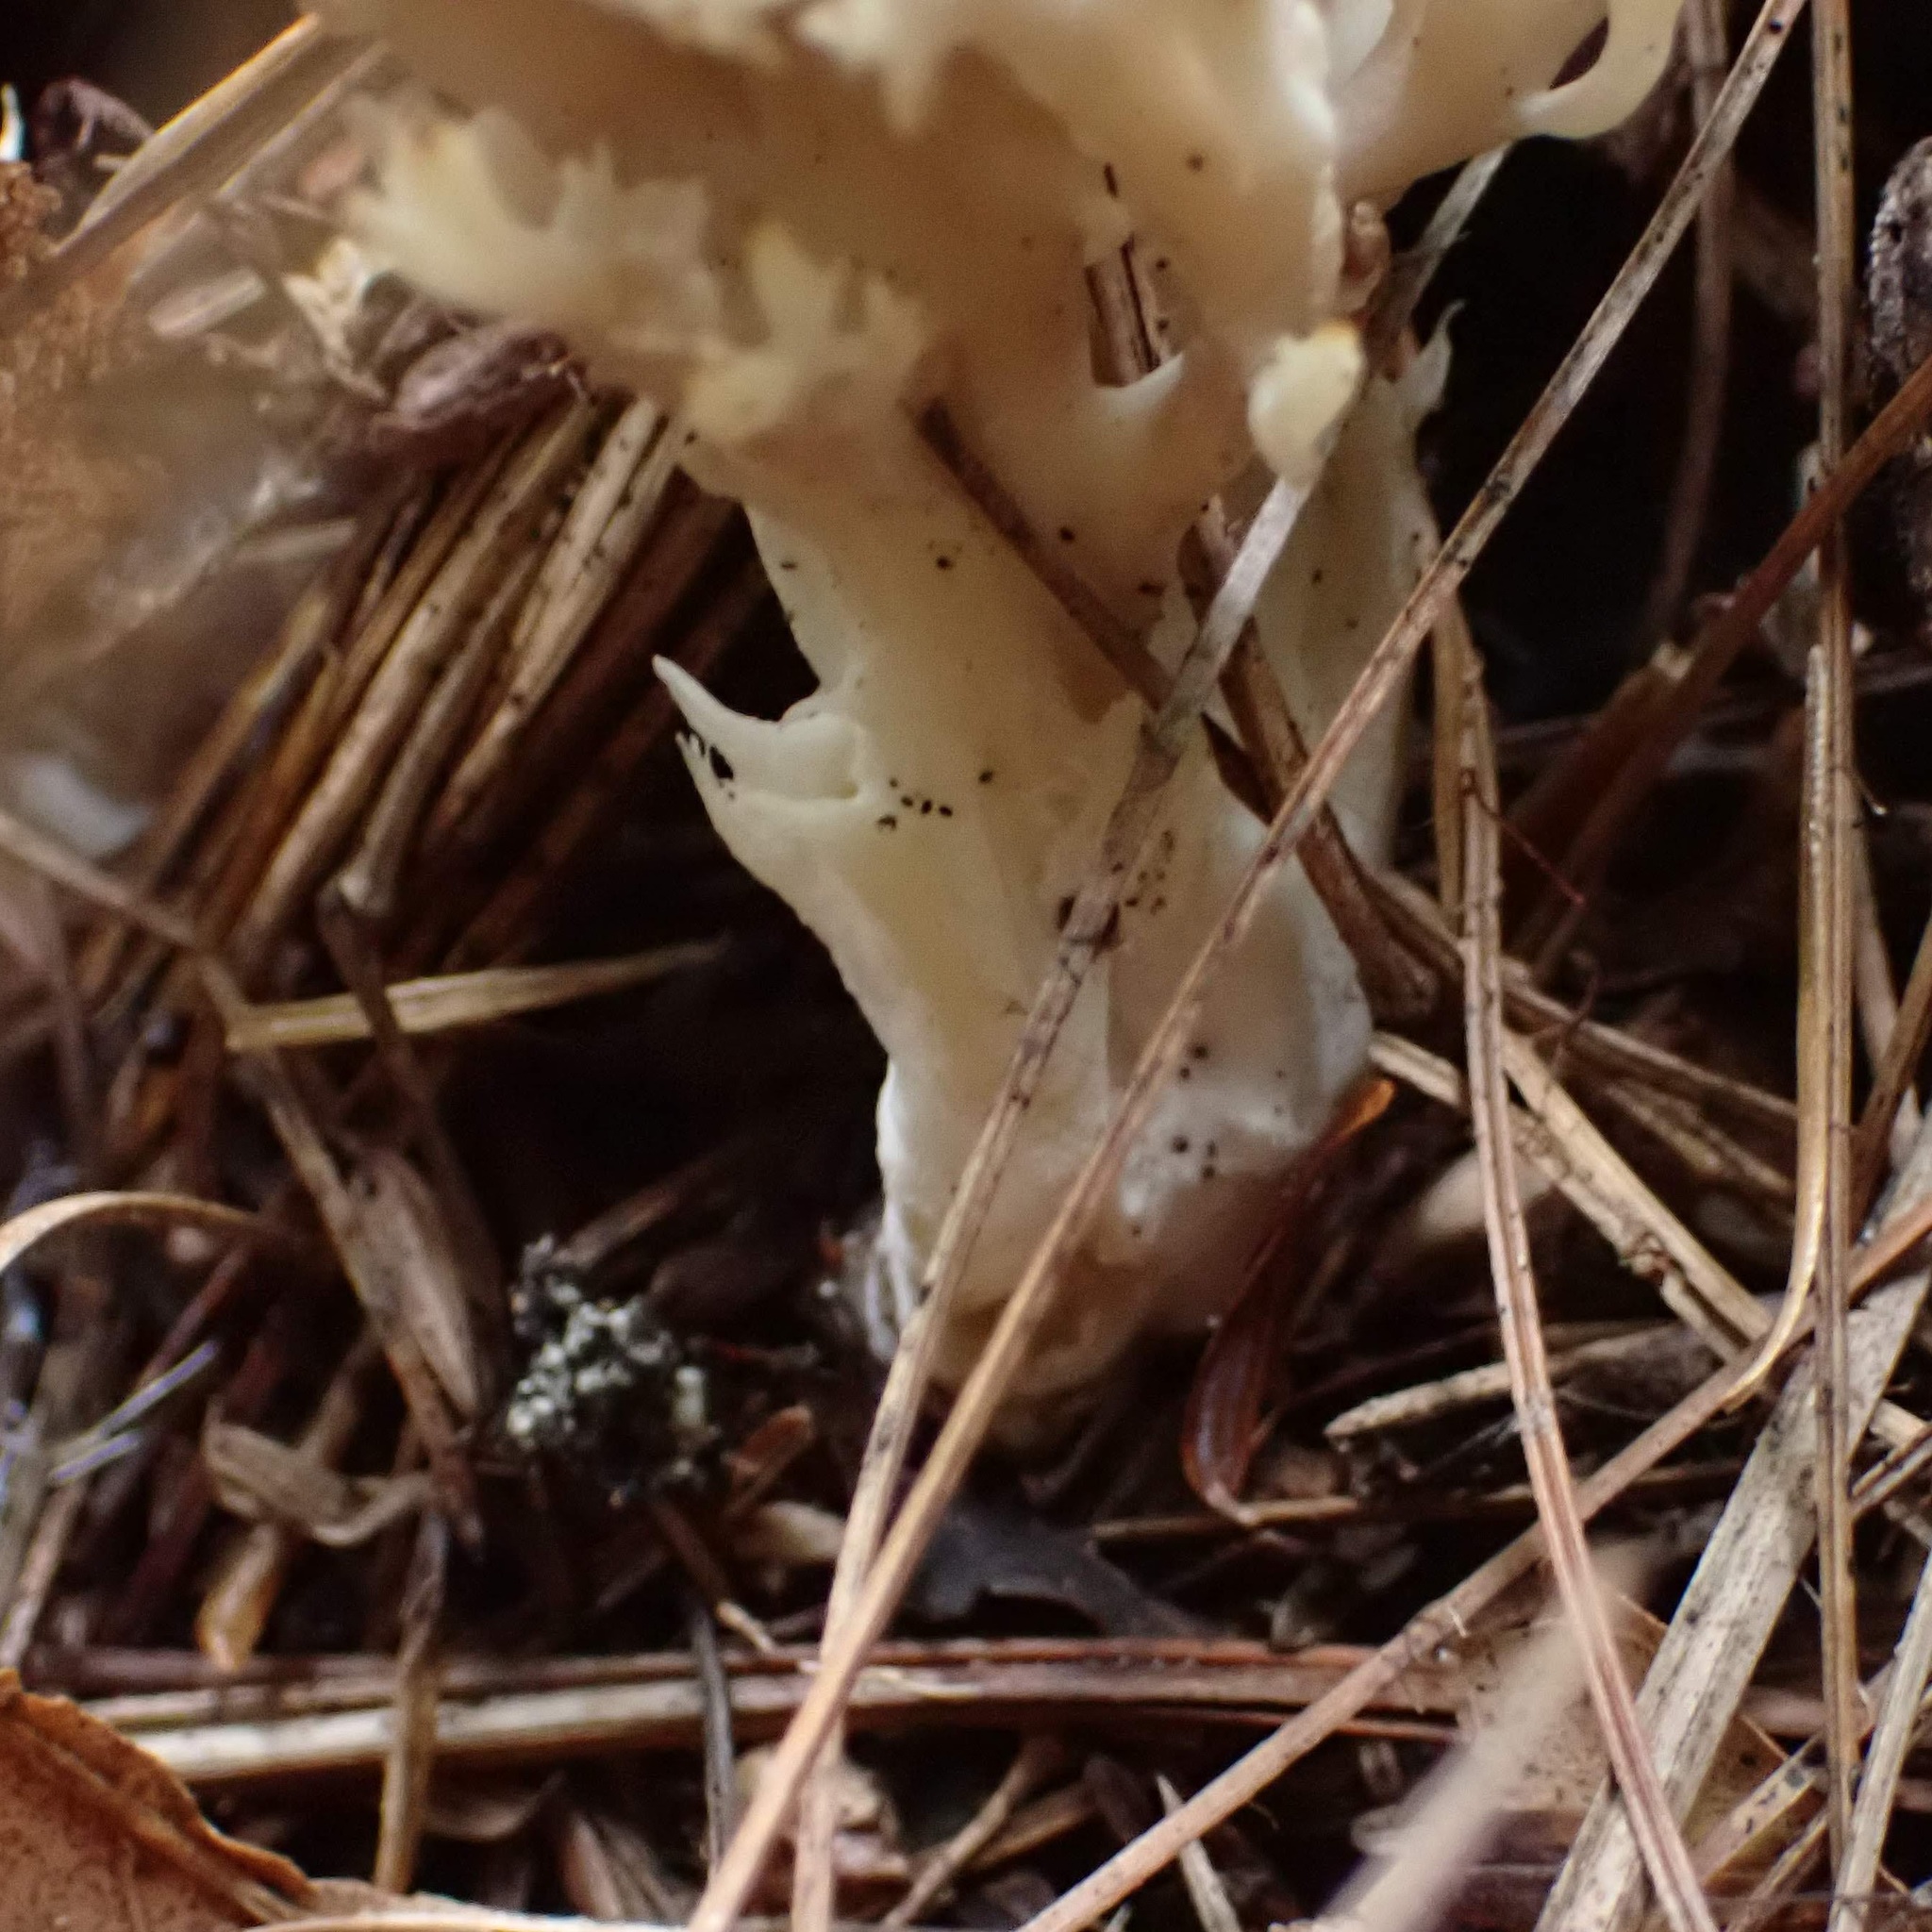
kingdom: Fungi
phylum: Basidiomycota
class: Agaricomycetes
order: Cantharellales
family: Hydnaceae
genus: Clavulina
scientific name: Clavulina coralloides
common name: Crested coral
